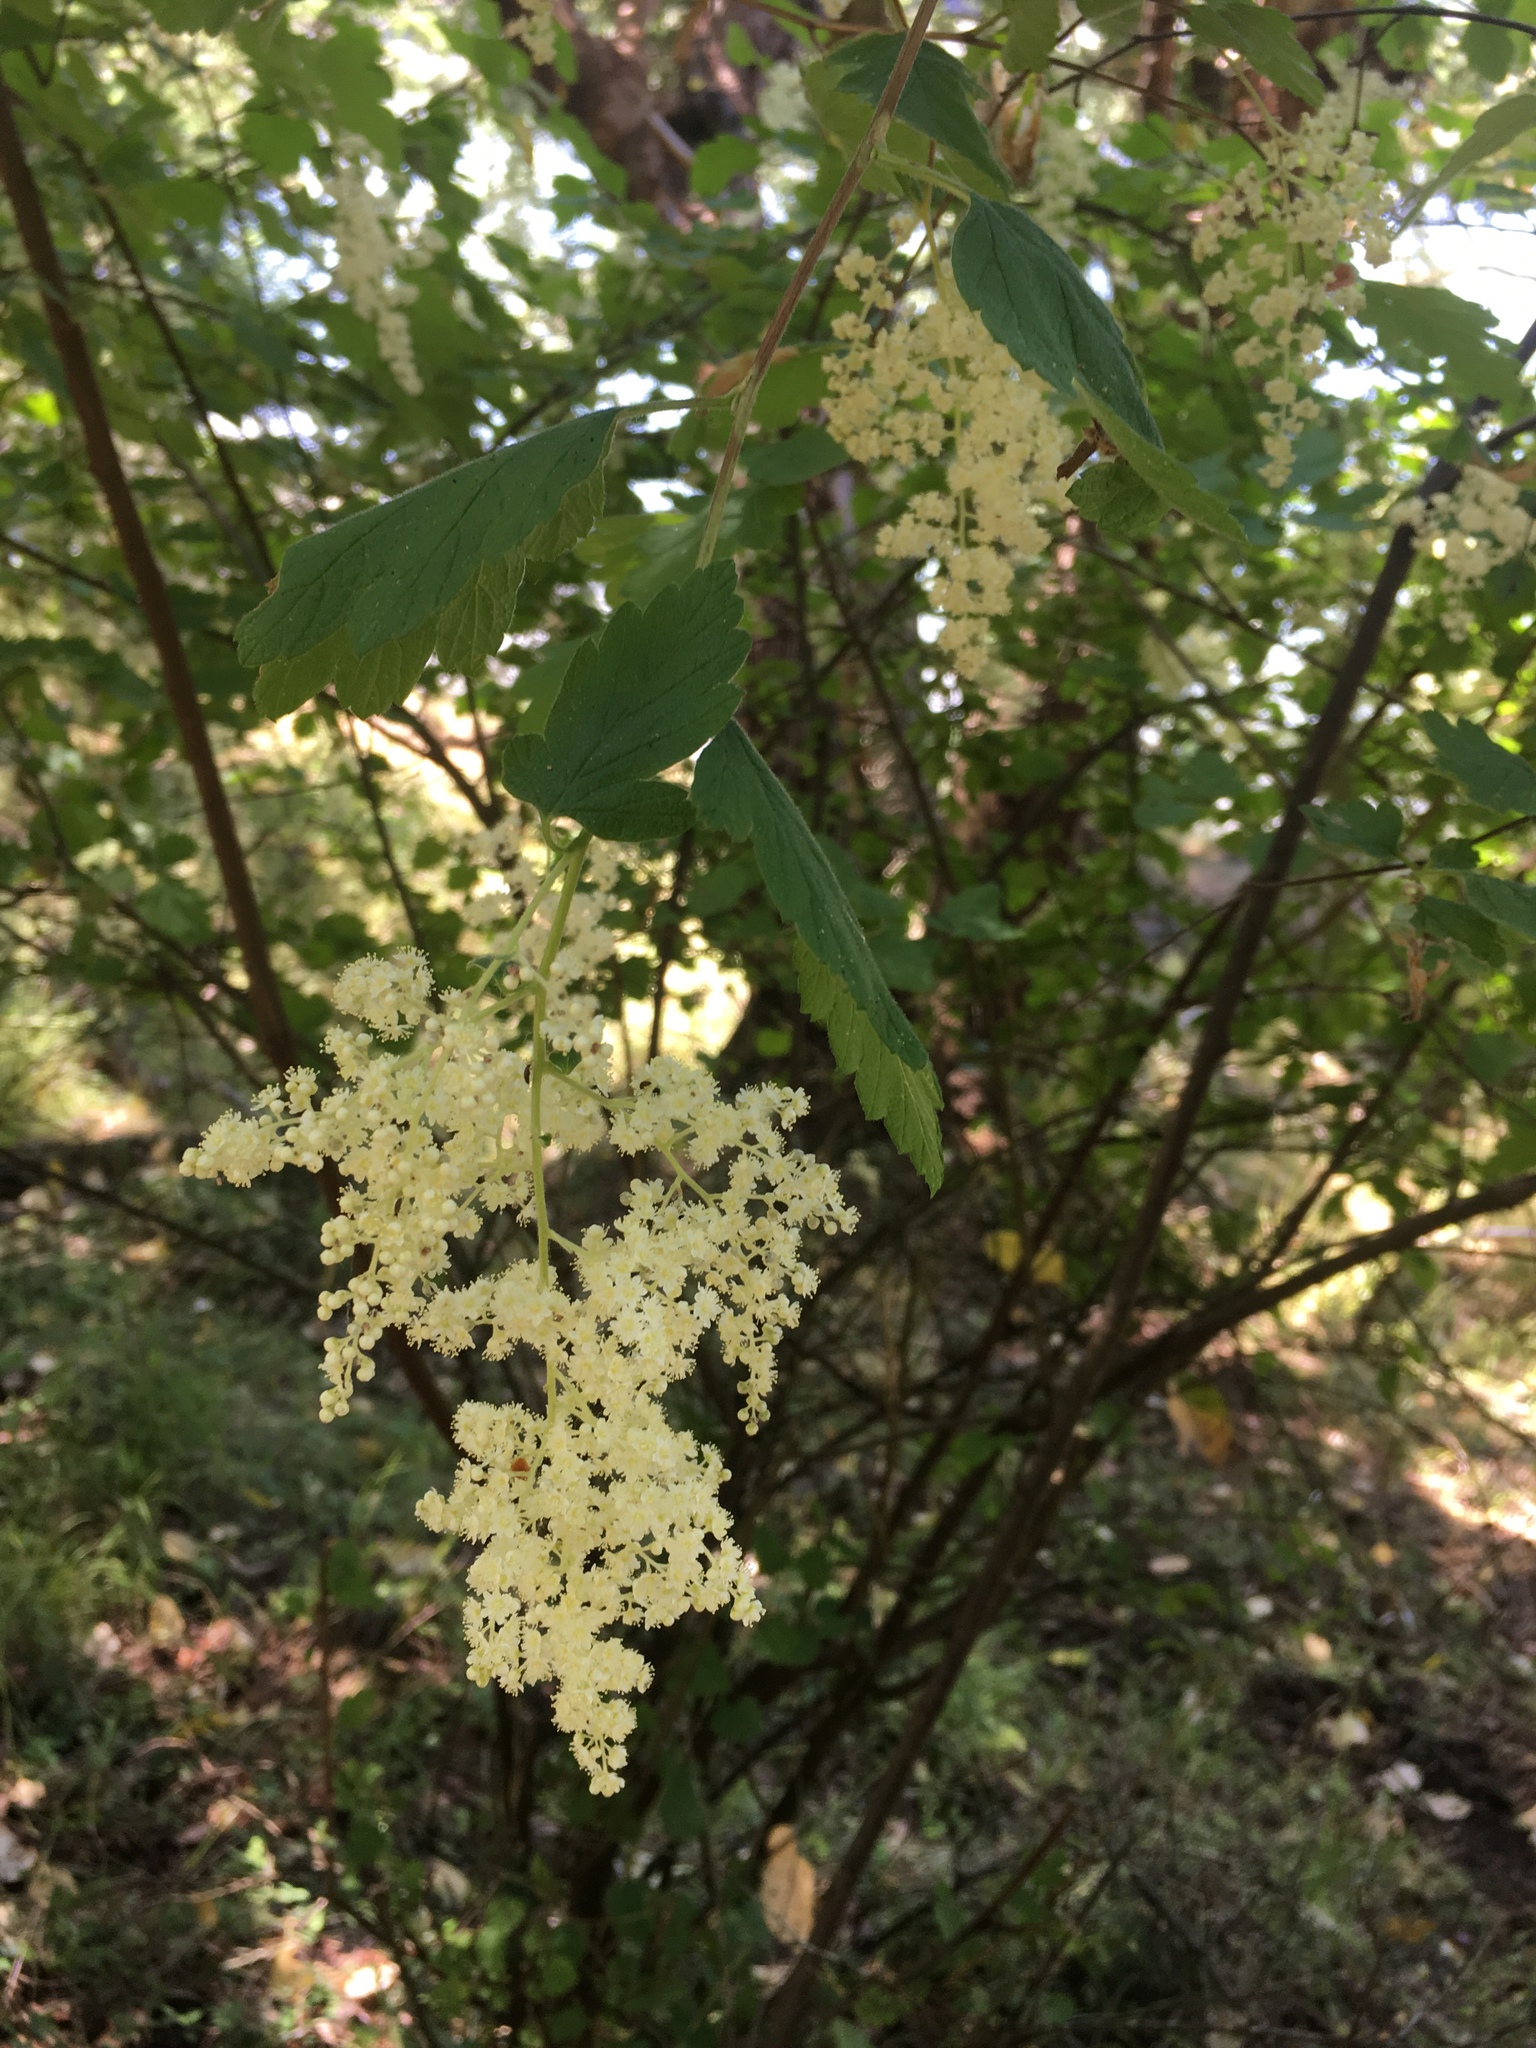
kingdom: Plantae
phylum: Tracheophyta
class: Magnoliopsida
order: Rosales
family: Rosaceae
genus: Holodiscus
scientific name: Holodiscus discolor
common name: Oceanspray
